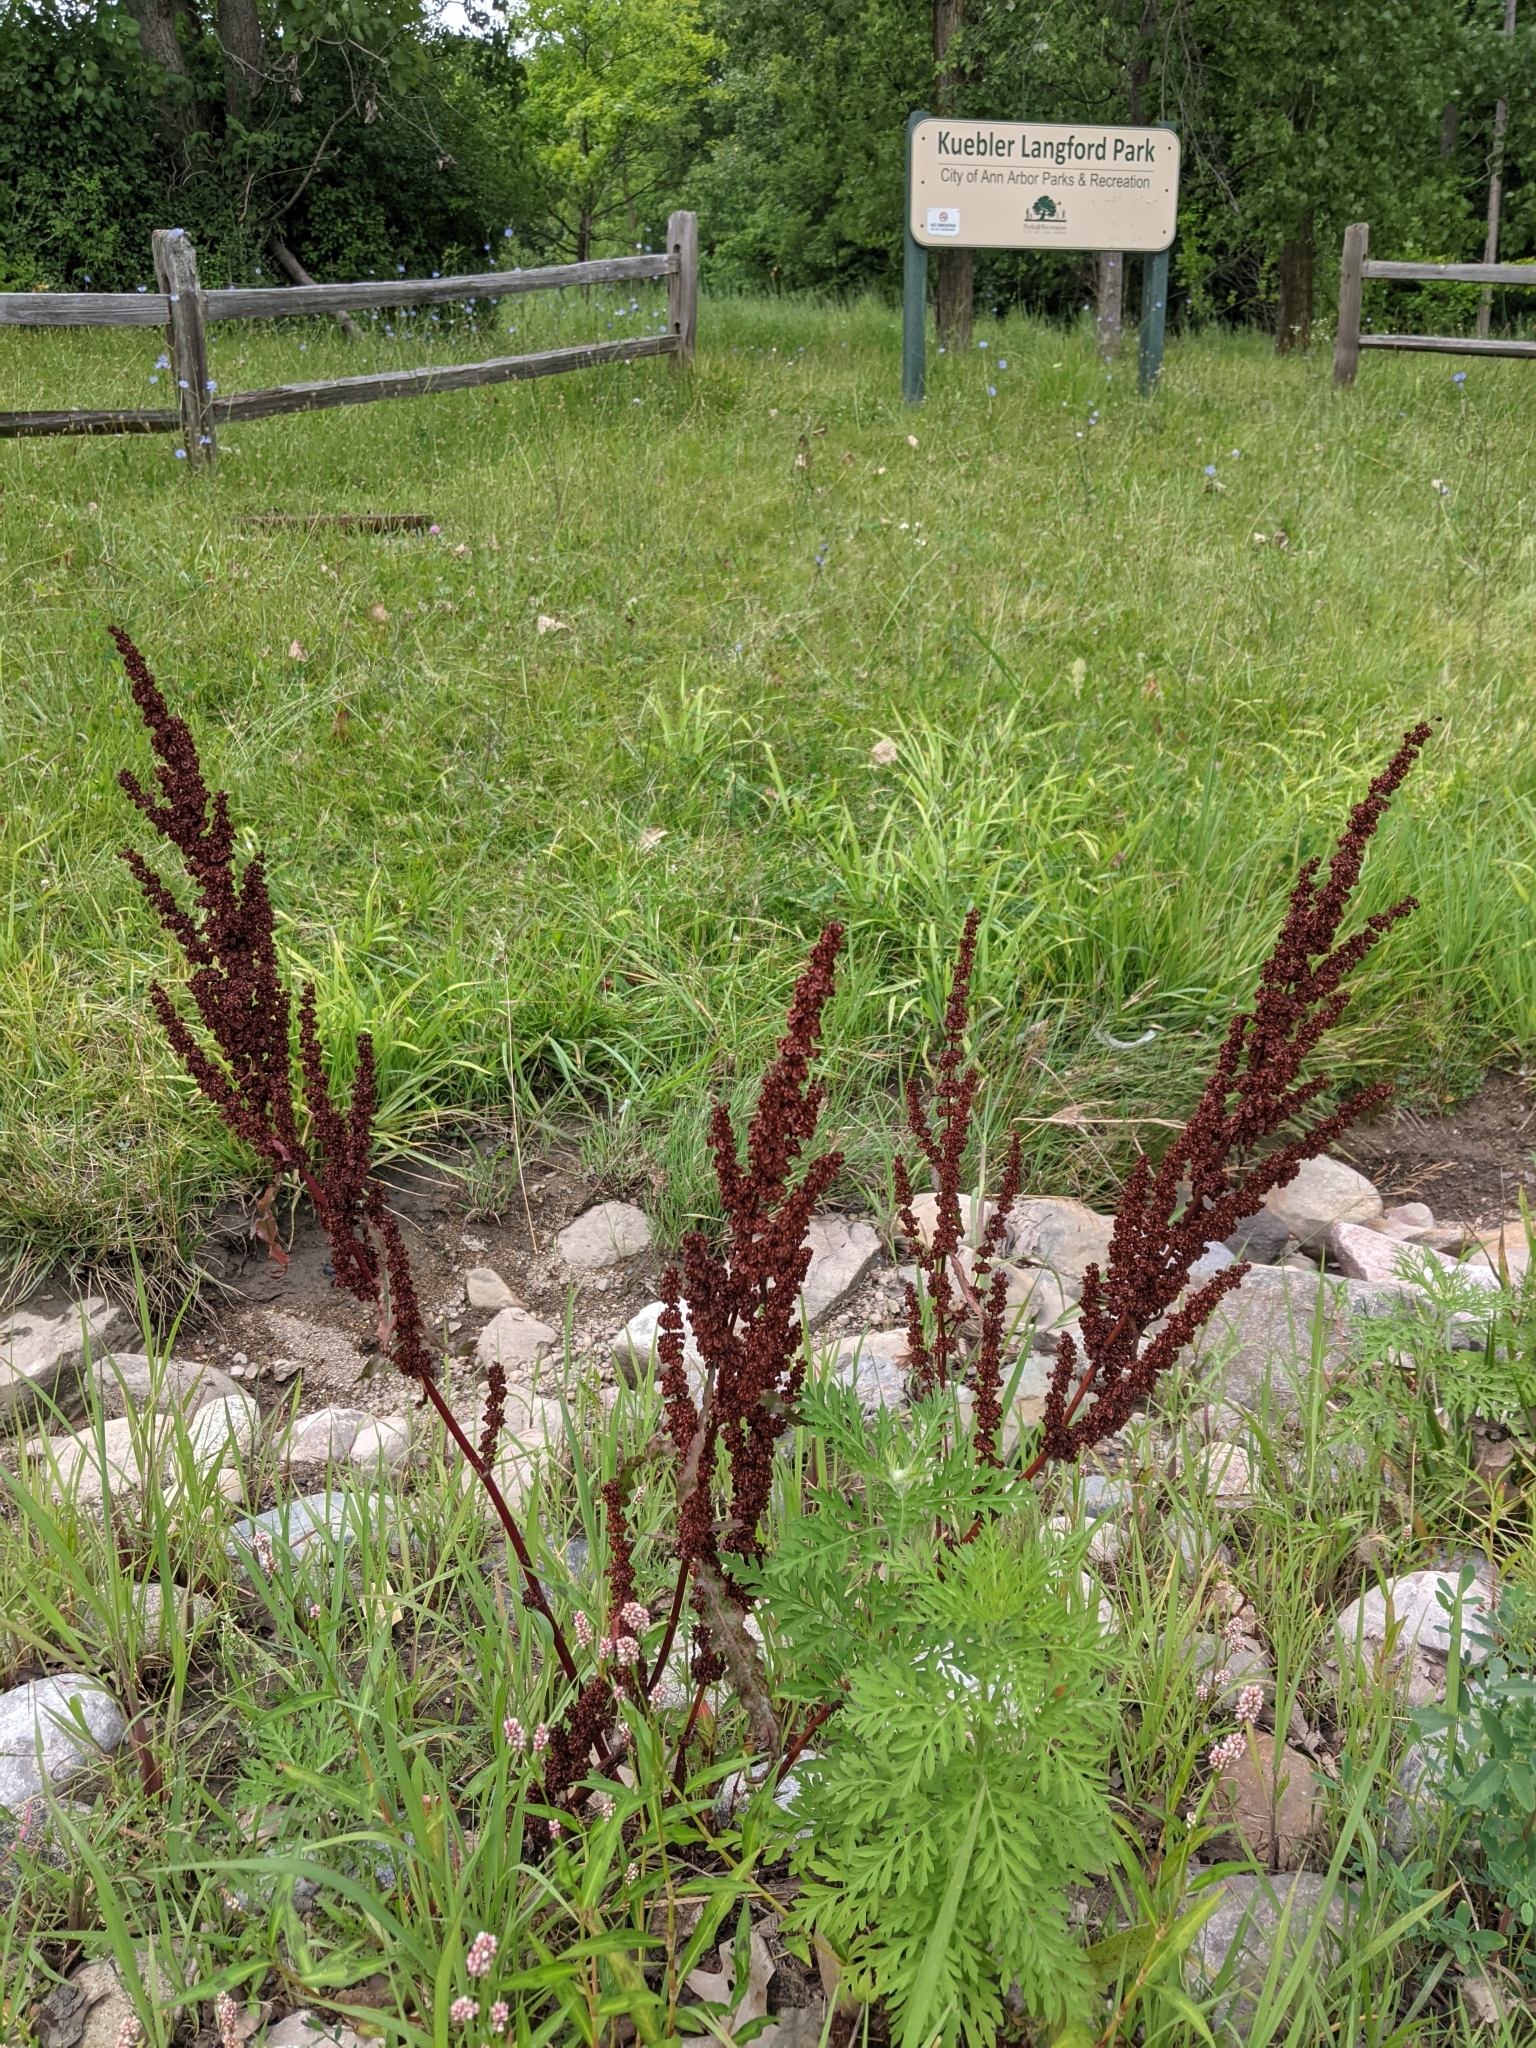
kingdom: Plantae
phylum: Tracheophyta
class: Magnoliopsida
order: Caryophyllales
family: Polygonaceae
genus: Rumex
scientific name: Rumex crispus
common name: Curled dock
